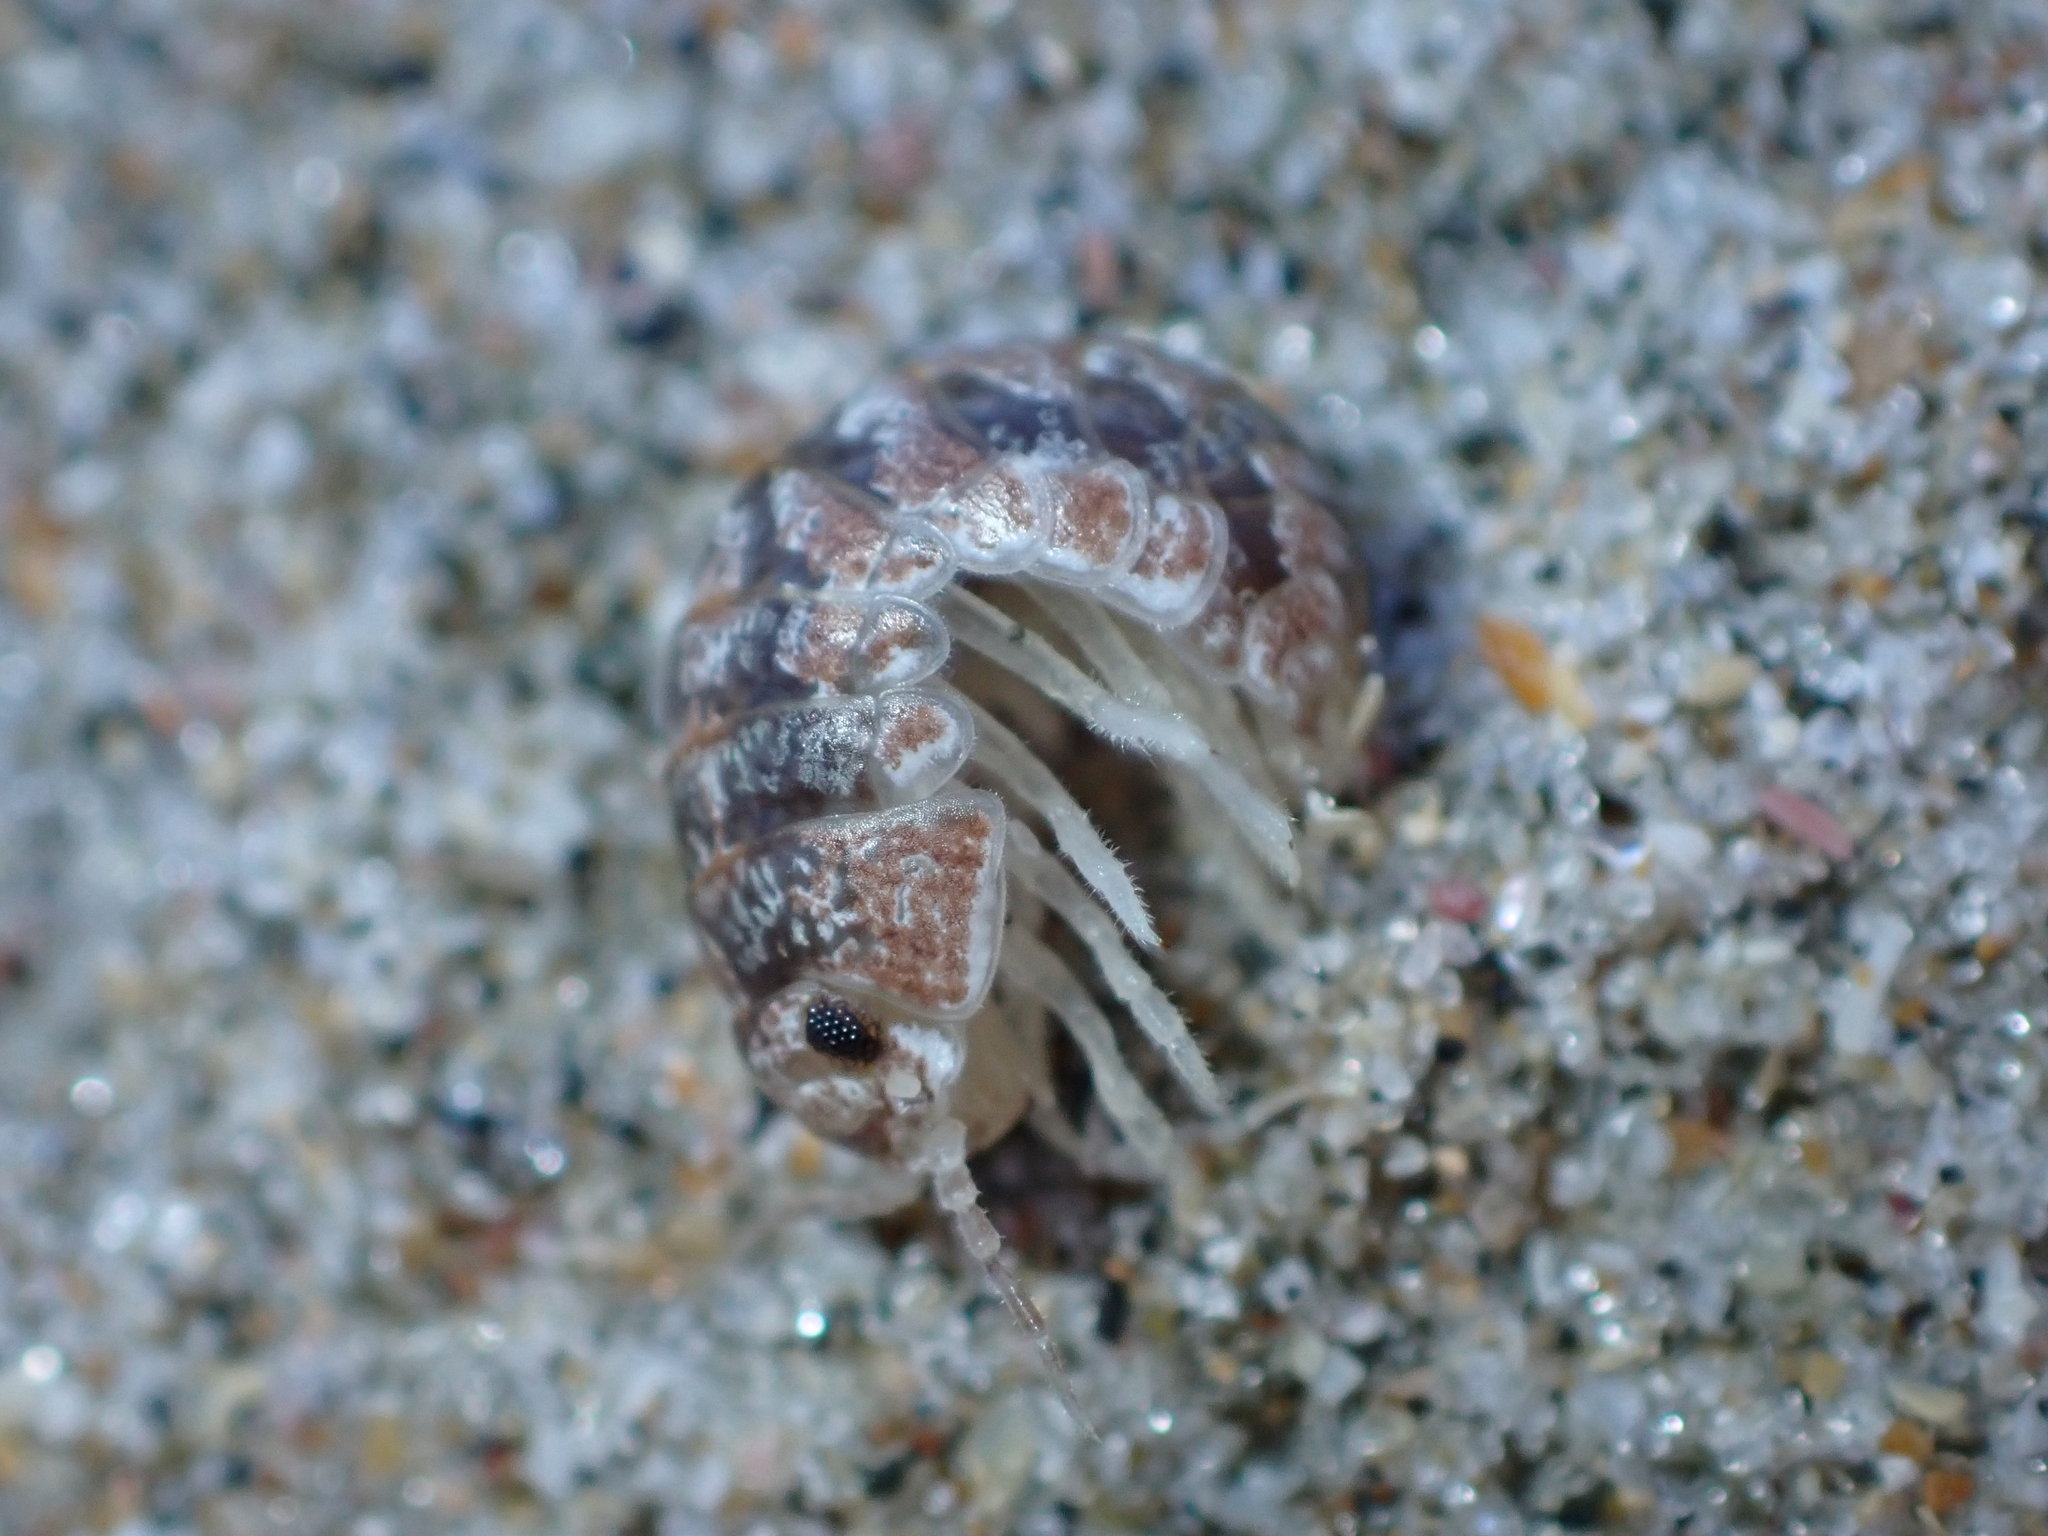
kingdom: Animalia
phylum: Arthropoda
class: Malacostraca
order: Isopoda
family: Tylidae
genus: Tylos
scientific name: Tylos neozelanicus
